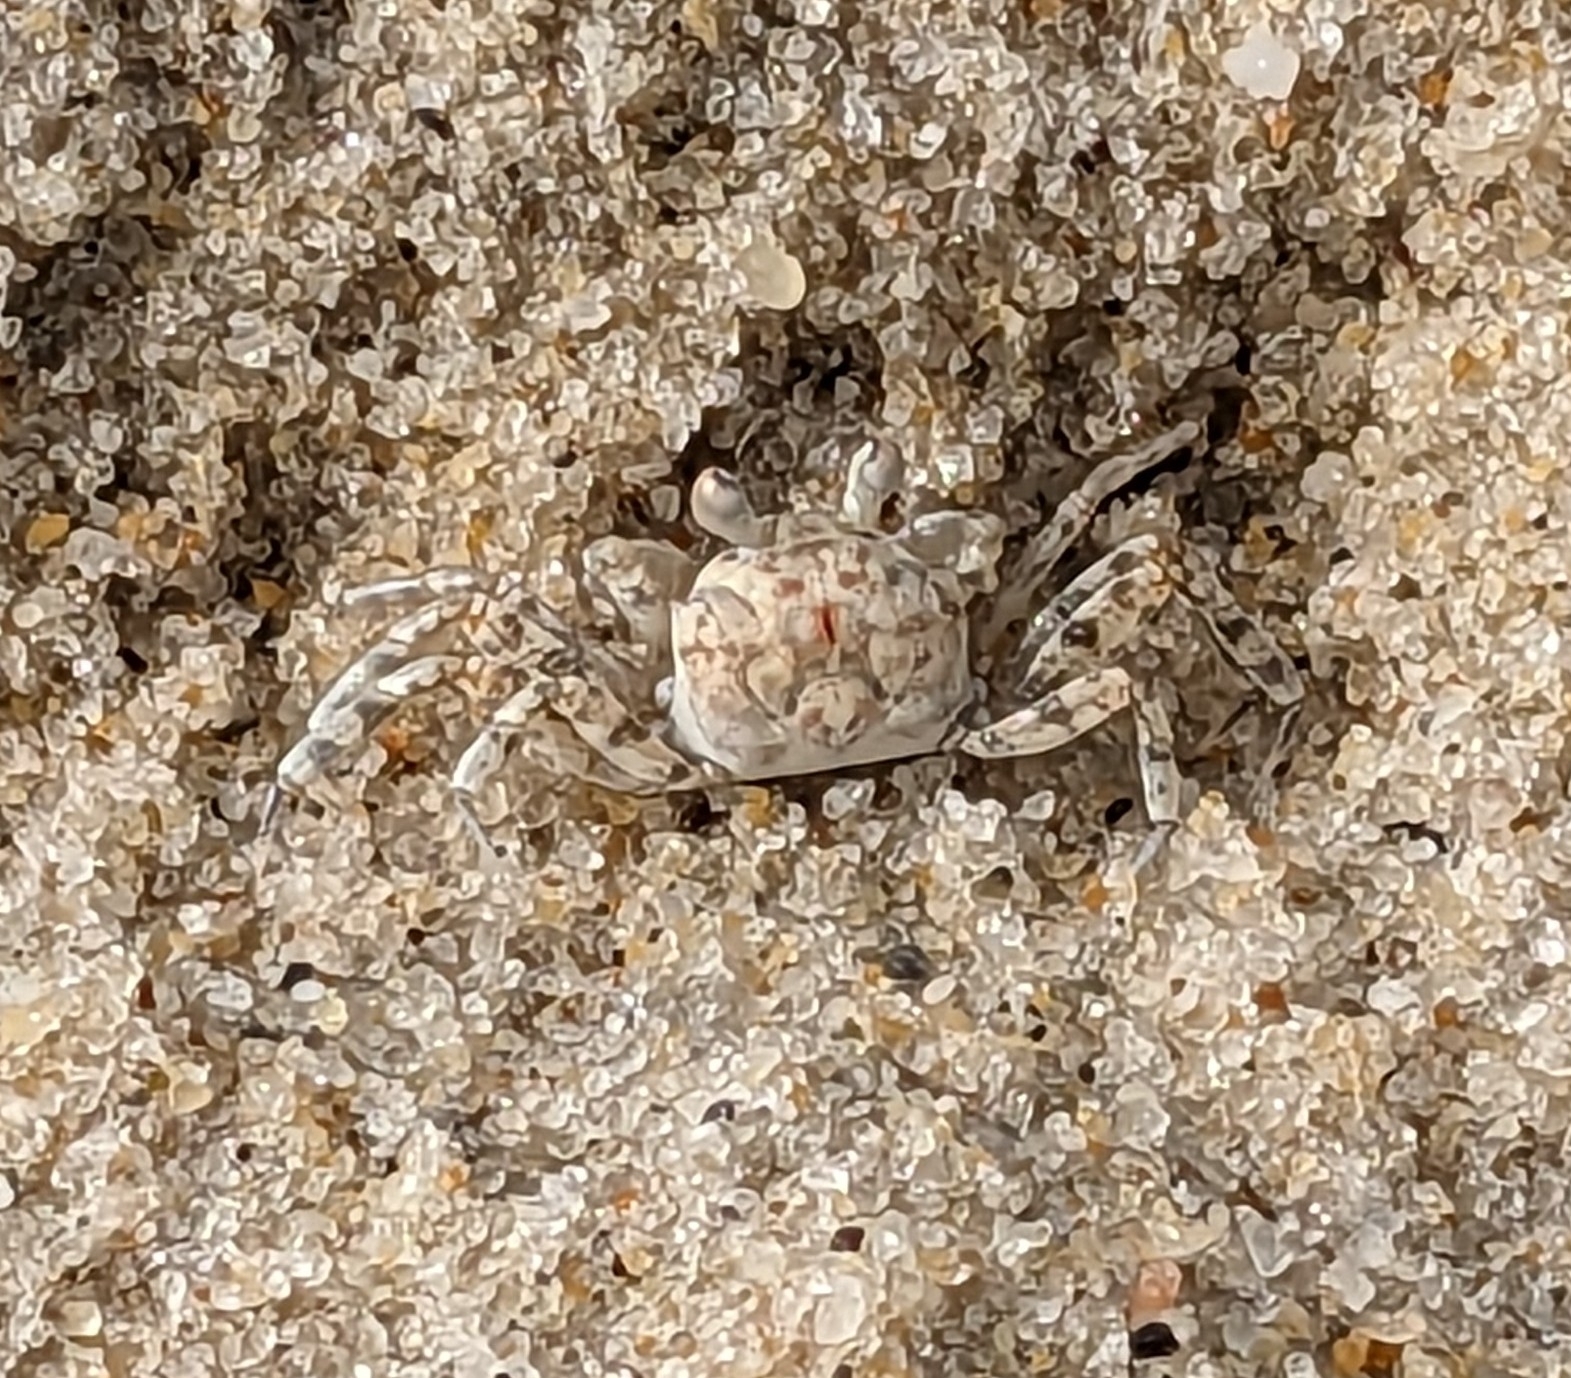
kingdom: Animalia
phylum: Arthropoda
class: Malacostraca
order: Decapoda
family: Ocypodidae
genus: Ocypode
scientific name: Ocypode quadrata
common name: Ghost crab
